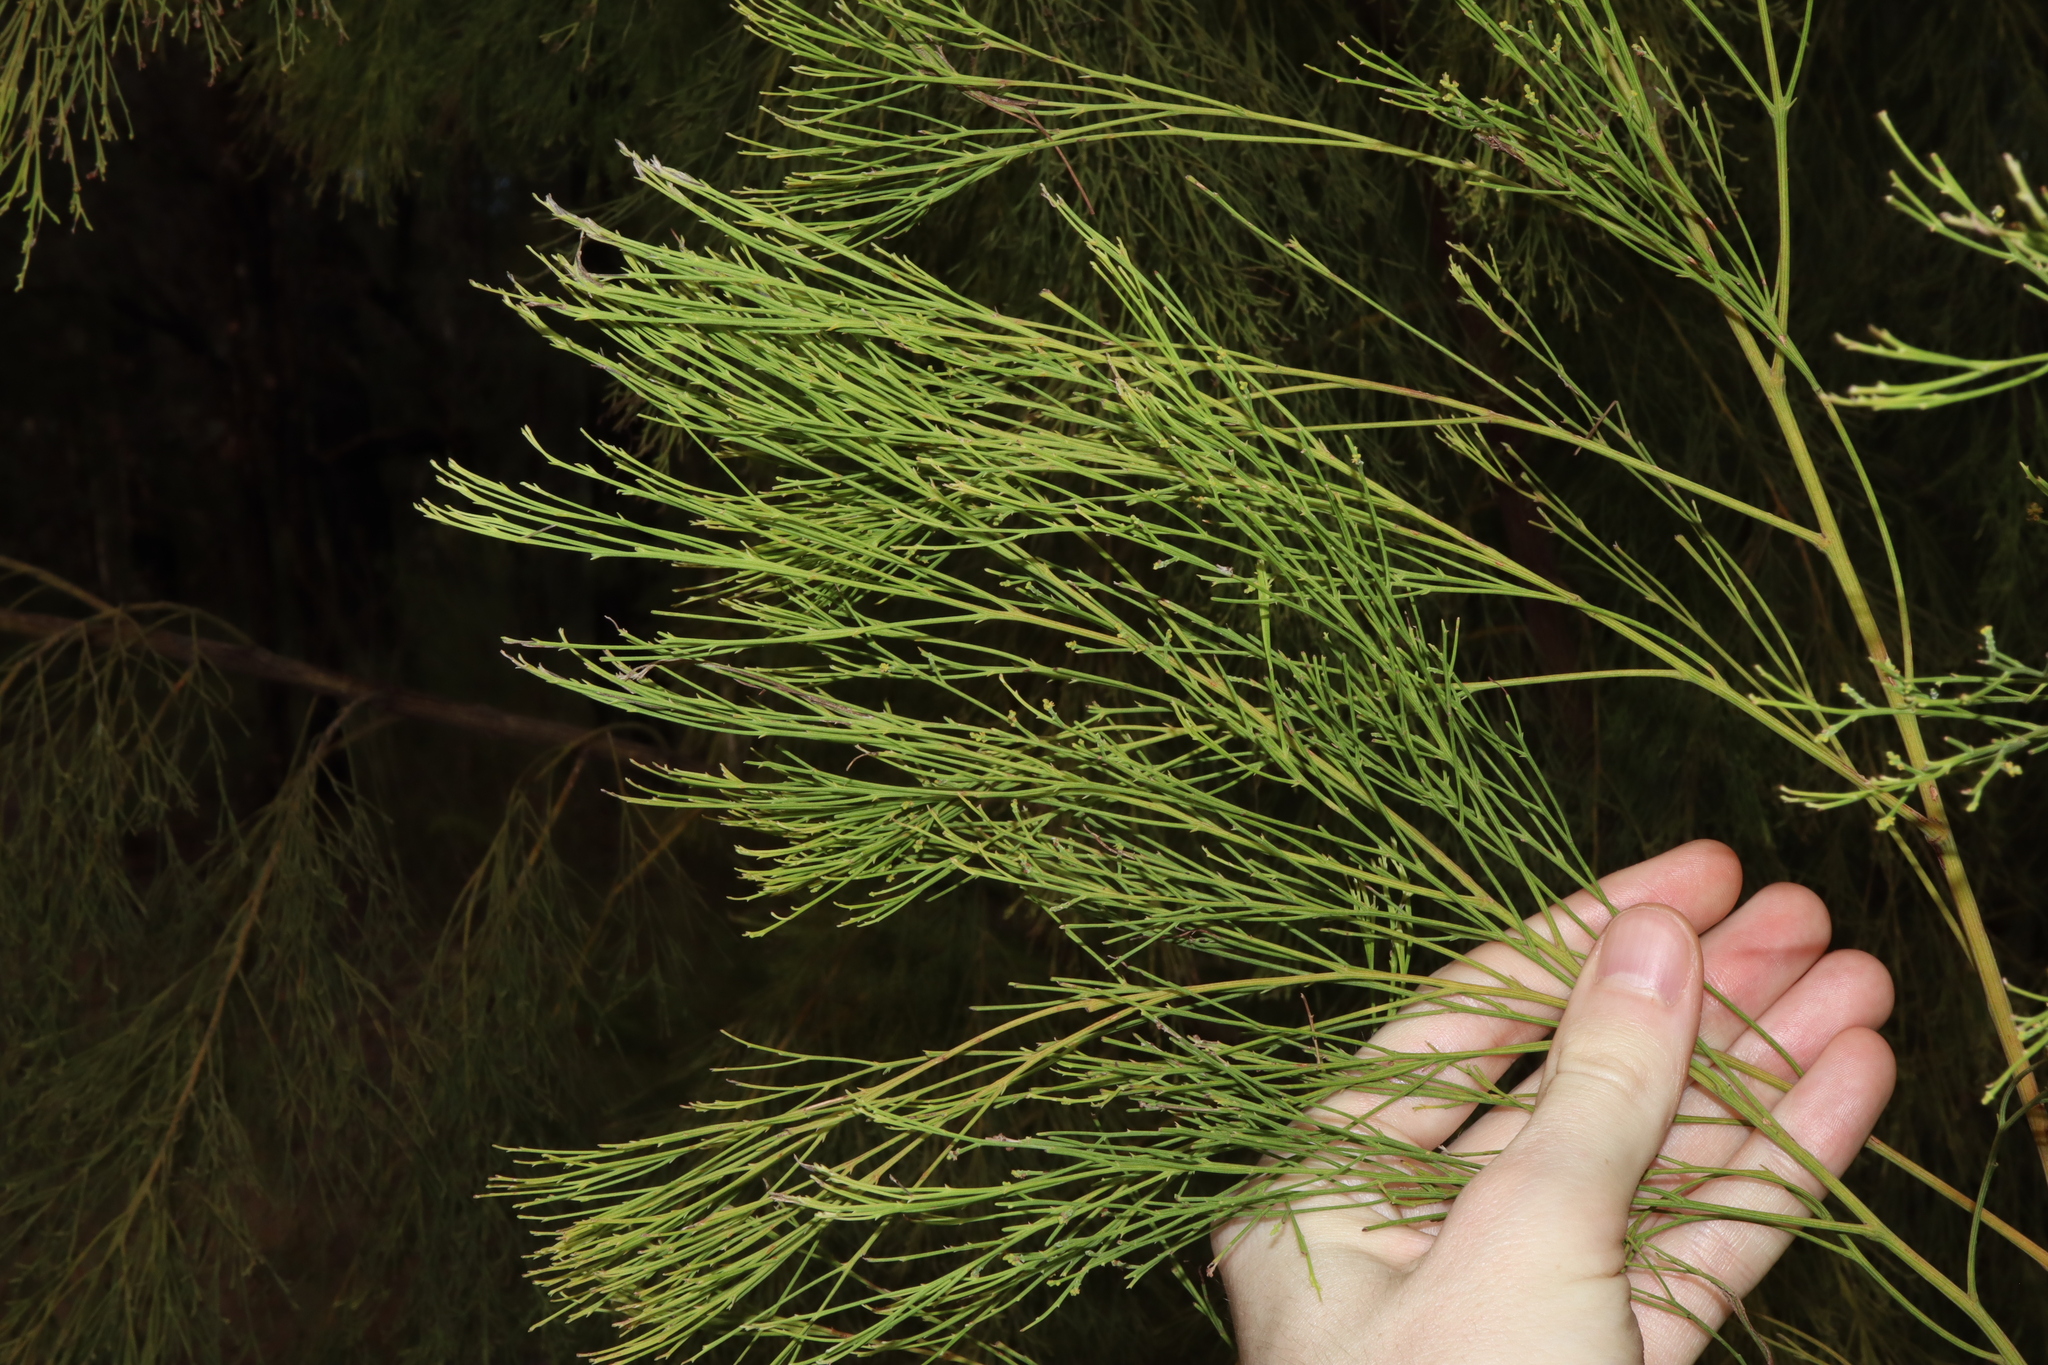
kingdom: Plantae
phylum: Tracheophyta
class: Magnoliopsida
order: Santalales
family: Santalaceae
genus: Exocarpos
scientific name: Exocarpos cupressiformis
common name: Cherry ballart
